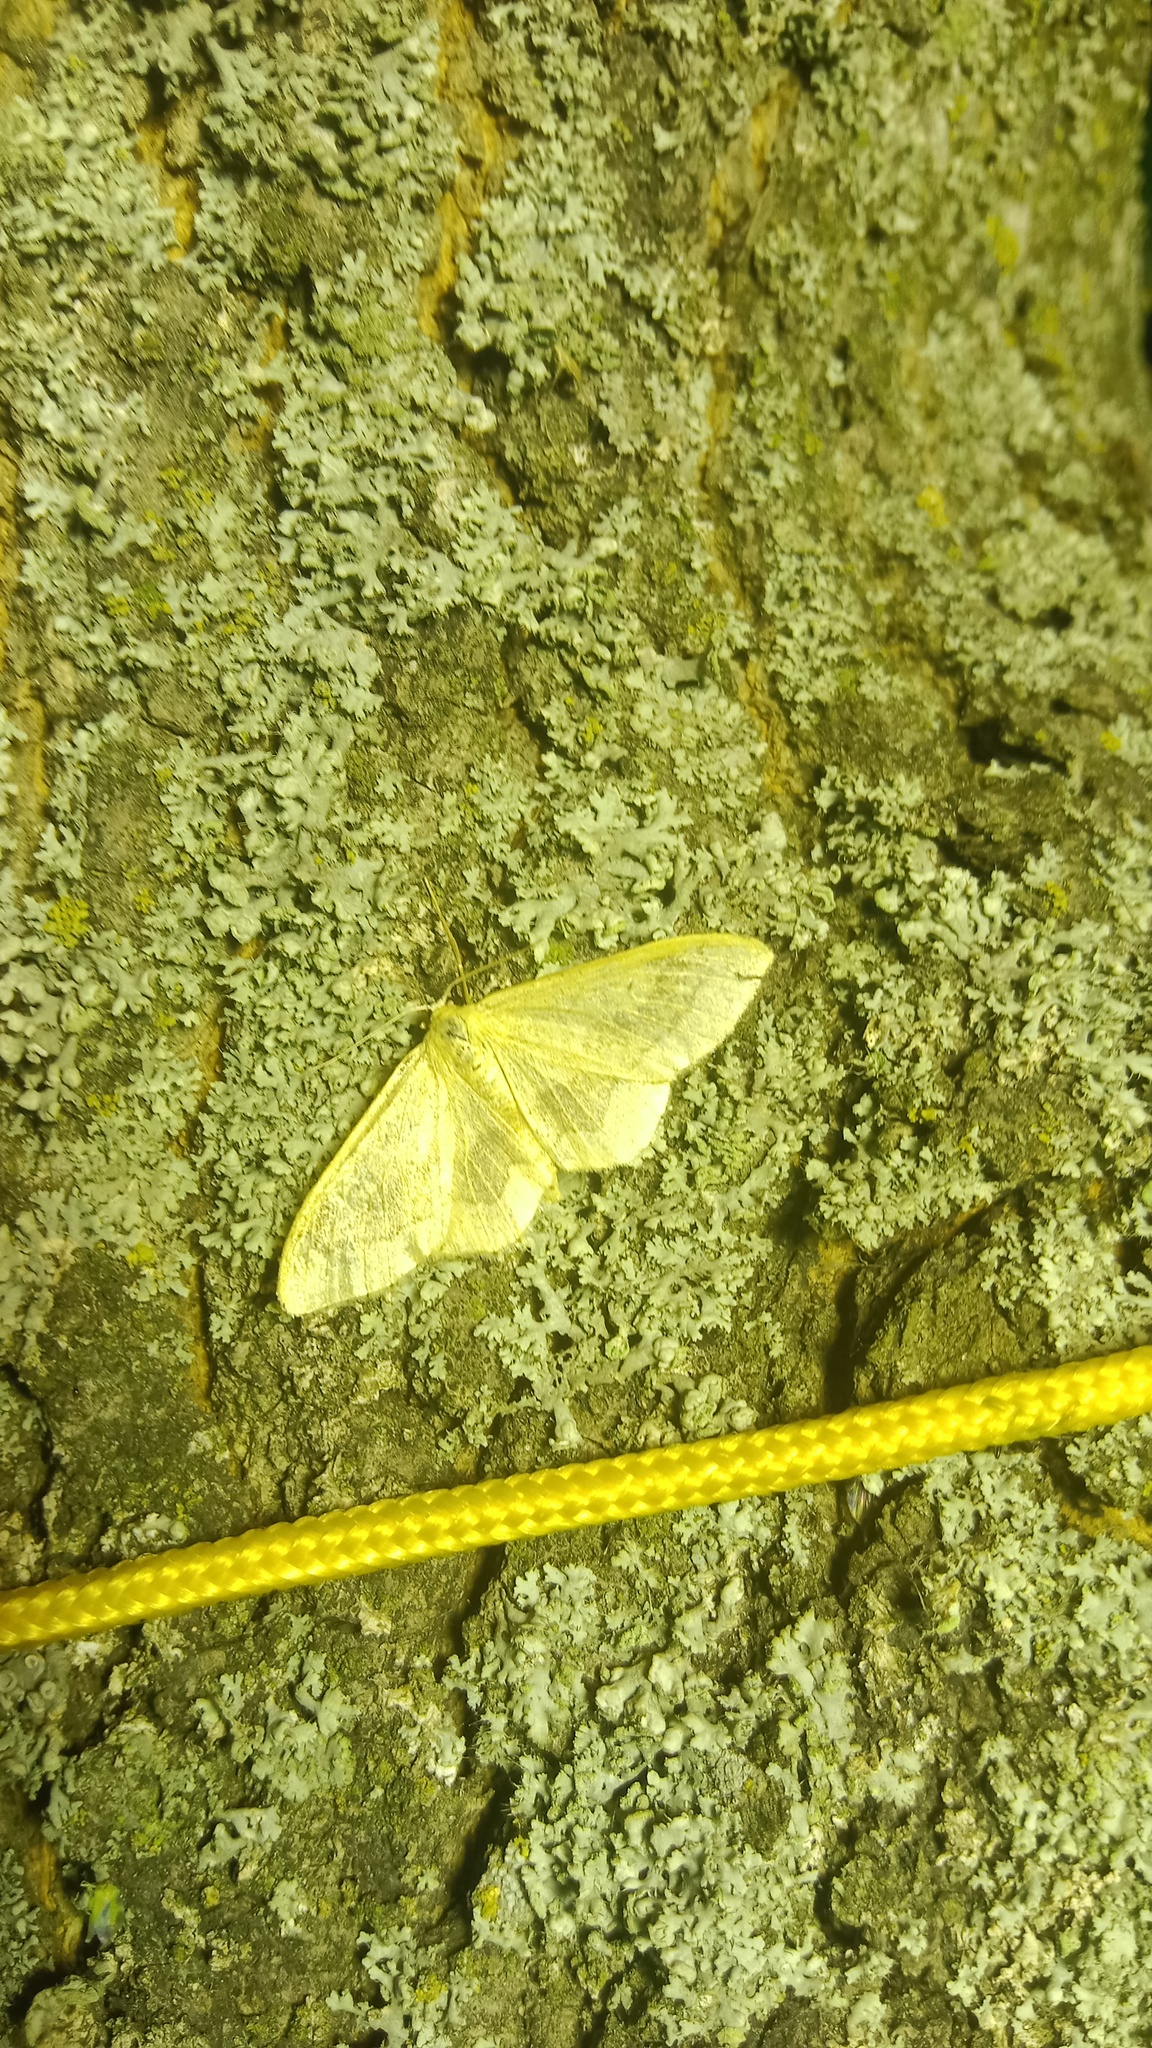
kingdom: Animalia
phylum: Arthropoda
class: Insecta
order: Lepidoptera
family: Geometridae
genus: Idaea
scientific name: Idaea aversata
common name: Riband wave
